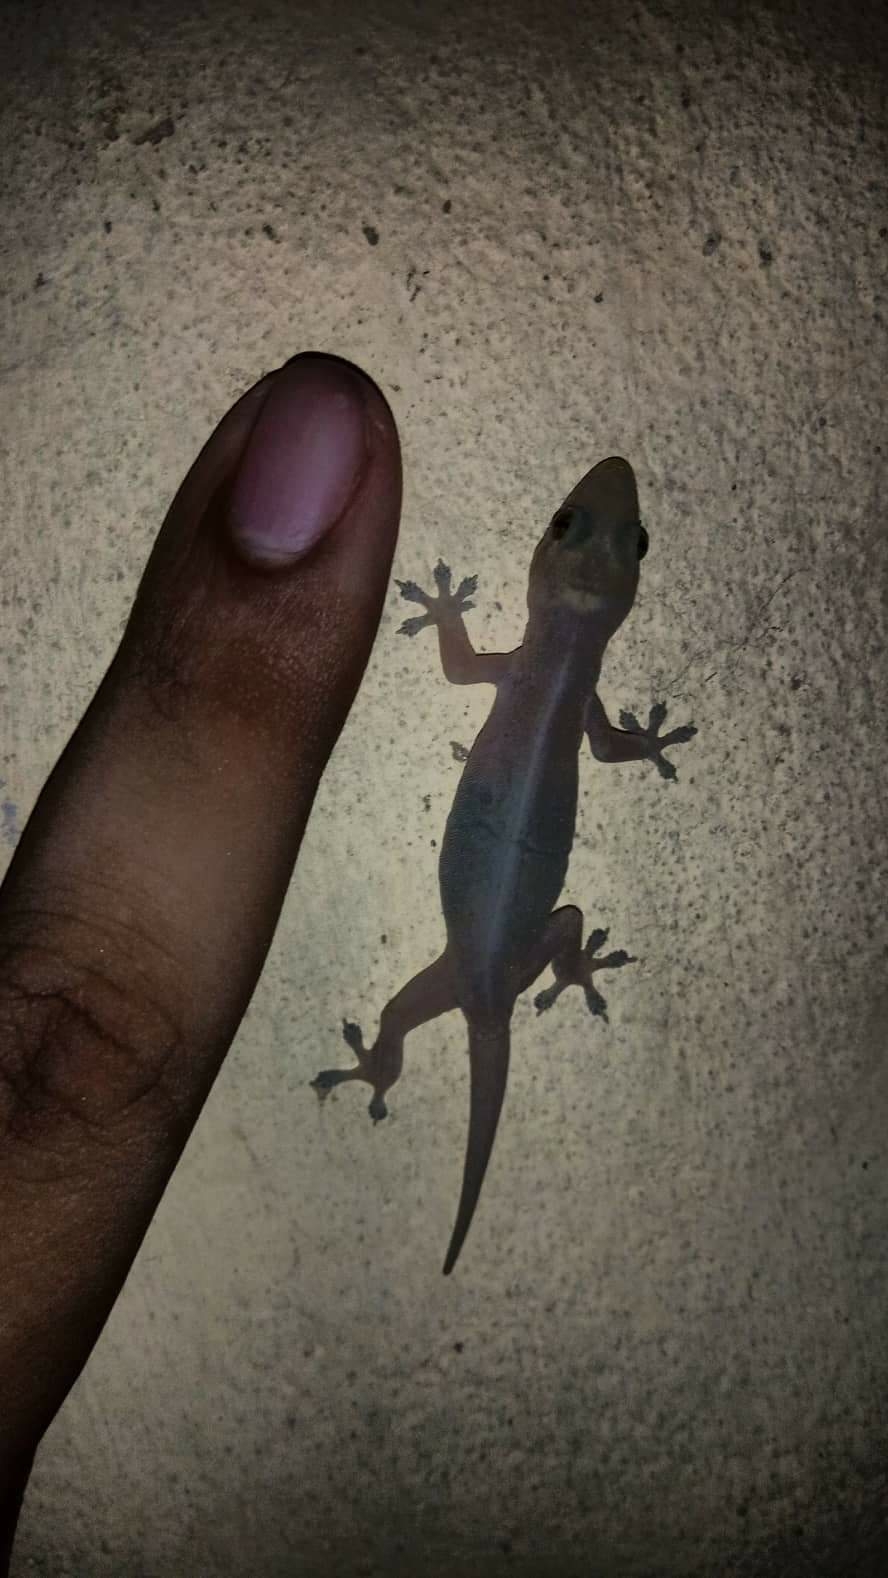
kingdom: Animalia
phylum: Chordata
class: Squamata
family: Gekkonidae
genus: Hemidactylus
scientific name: Hemidactylus frenatus
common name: Common house gecko
